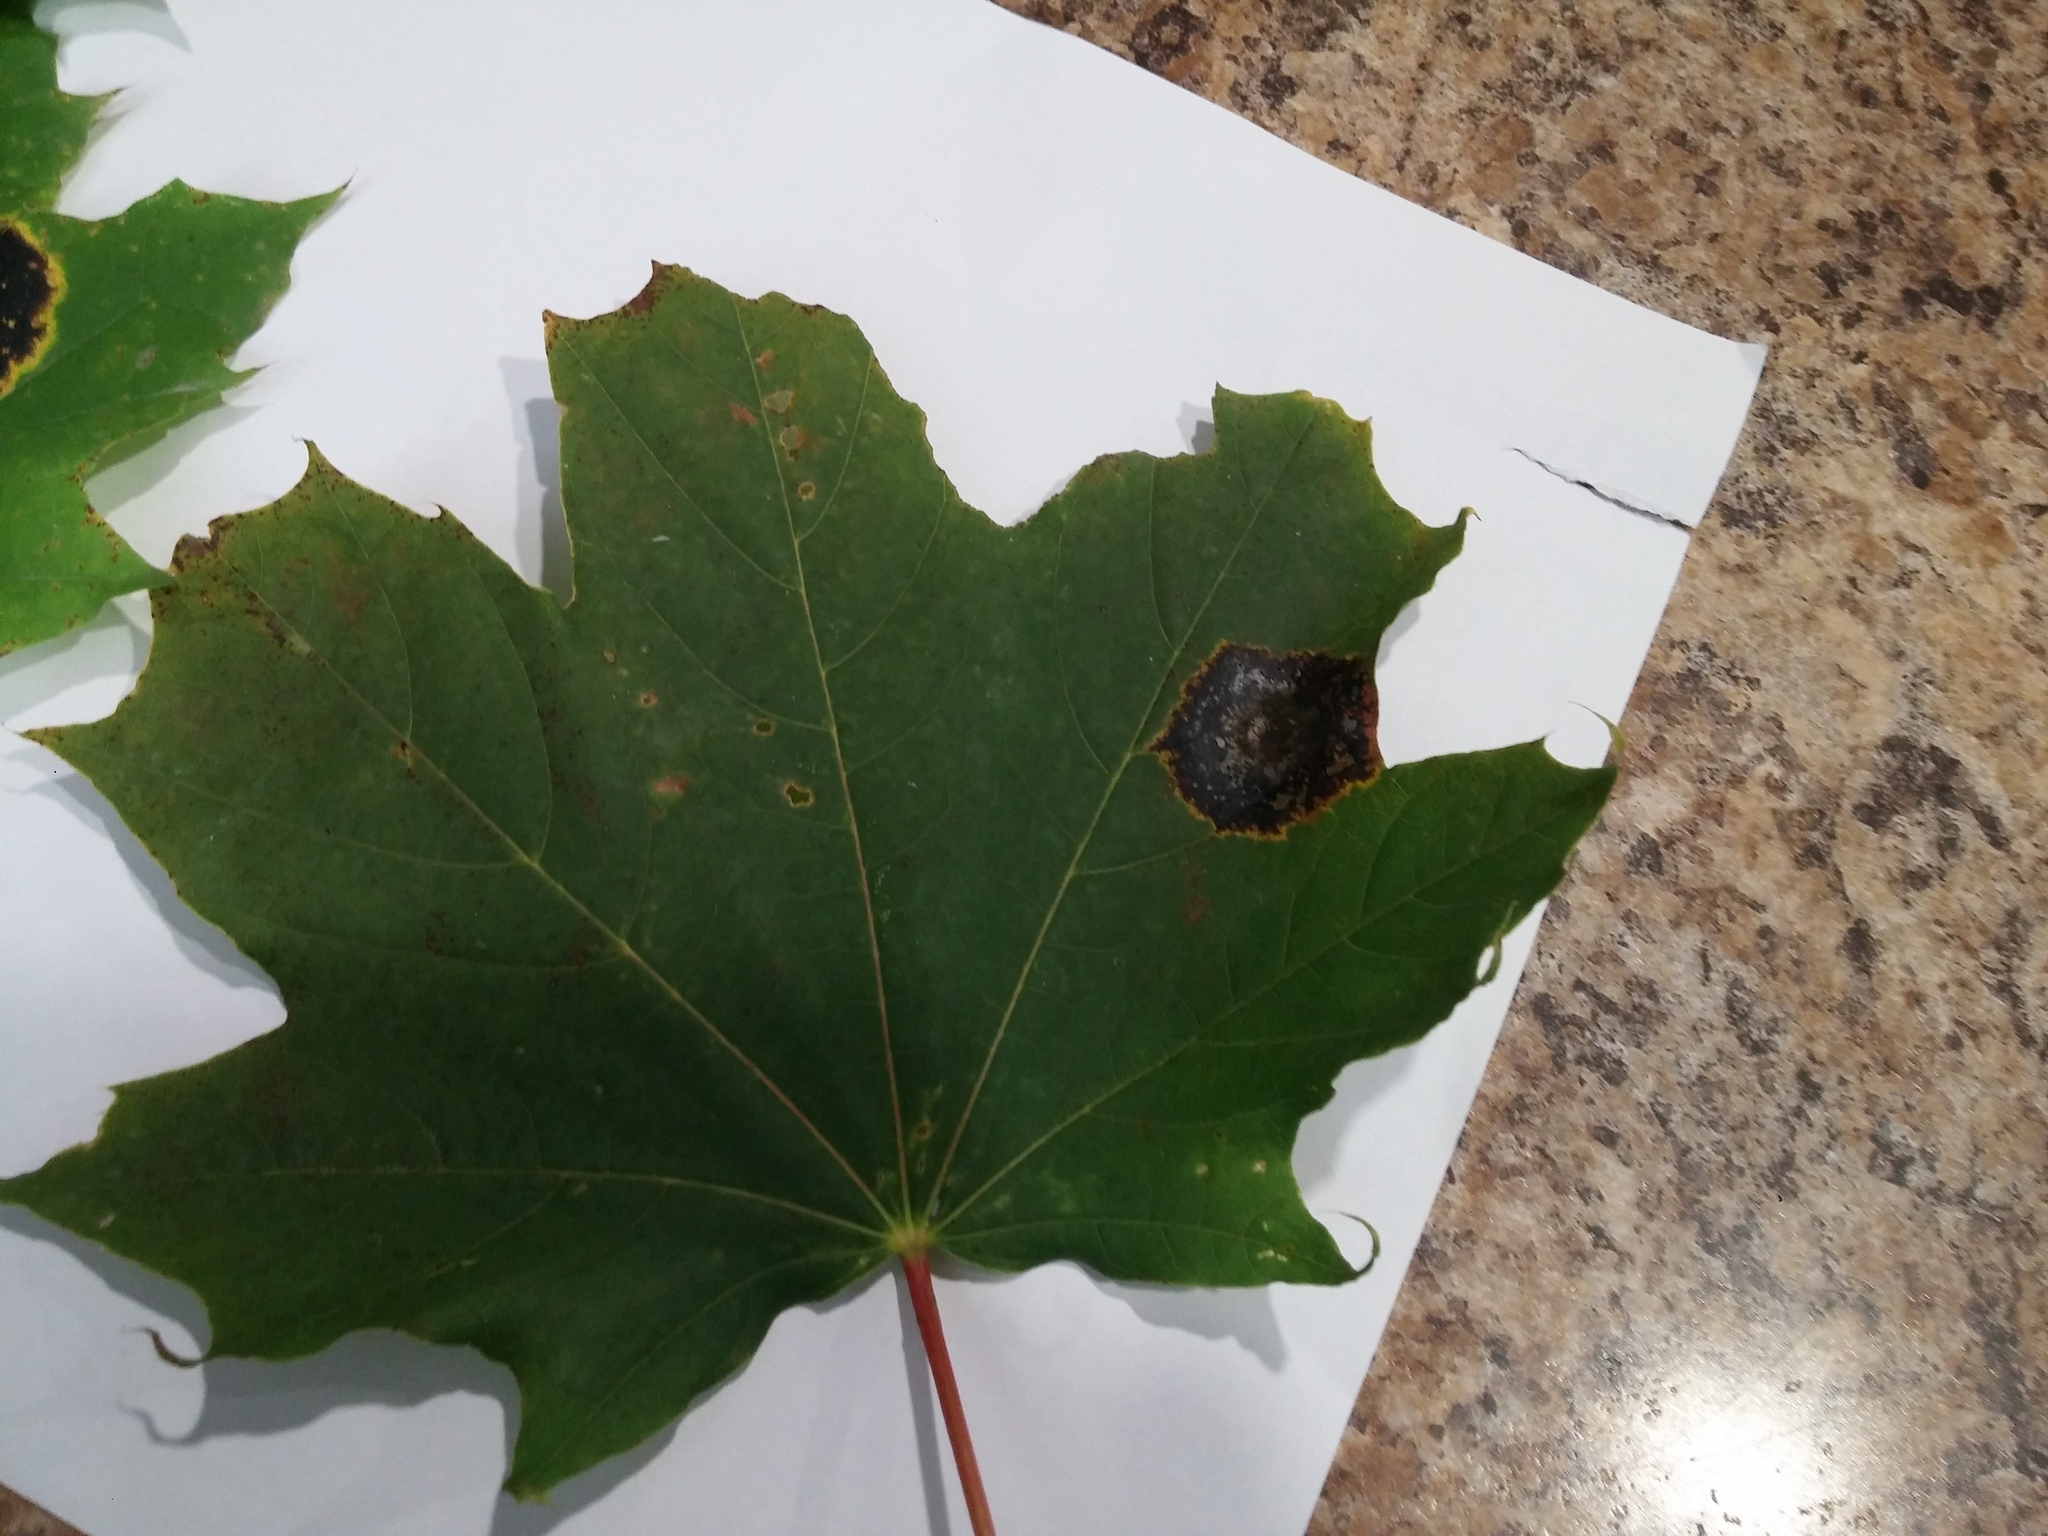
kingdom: Fungi
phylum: Ascomycota
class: Leotiomycetes
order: Rhytismatales
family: Rhytismataceae
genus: Rhytisma
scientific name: Rhytisma acerinum
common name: European tar spot
